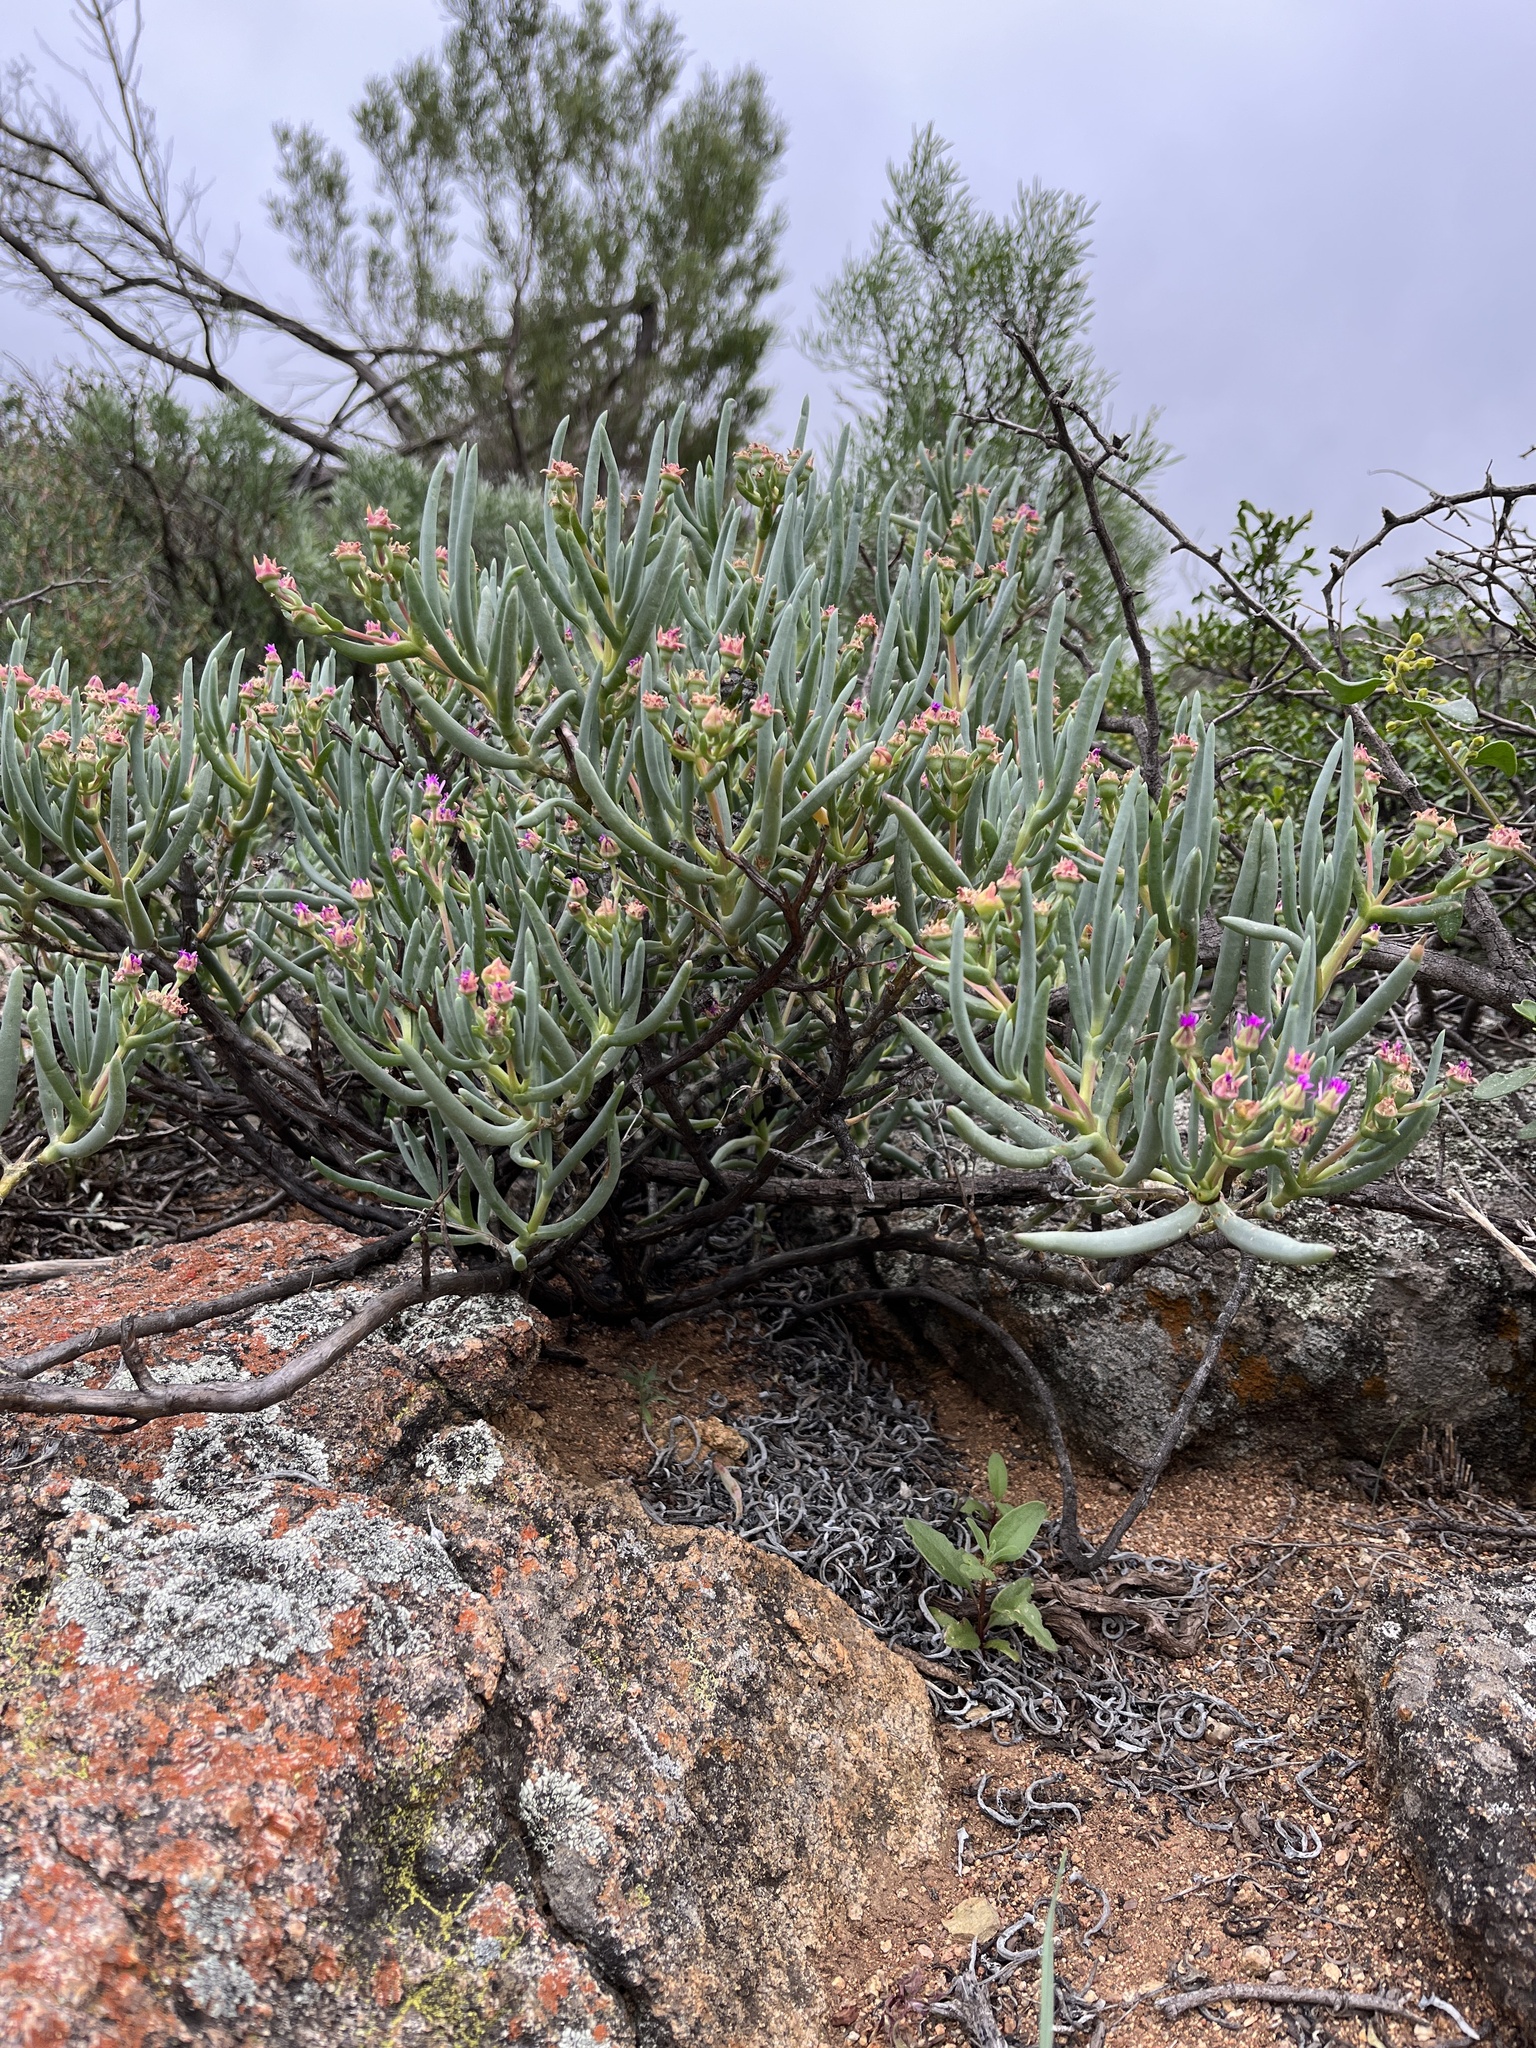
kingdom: Plantae
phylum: Tracheophyta
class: Magnoliopsida
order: Caryophyllales
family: Aizoaceae
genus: Ruschia
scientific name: Ruschia muelleri
